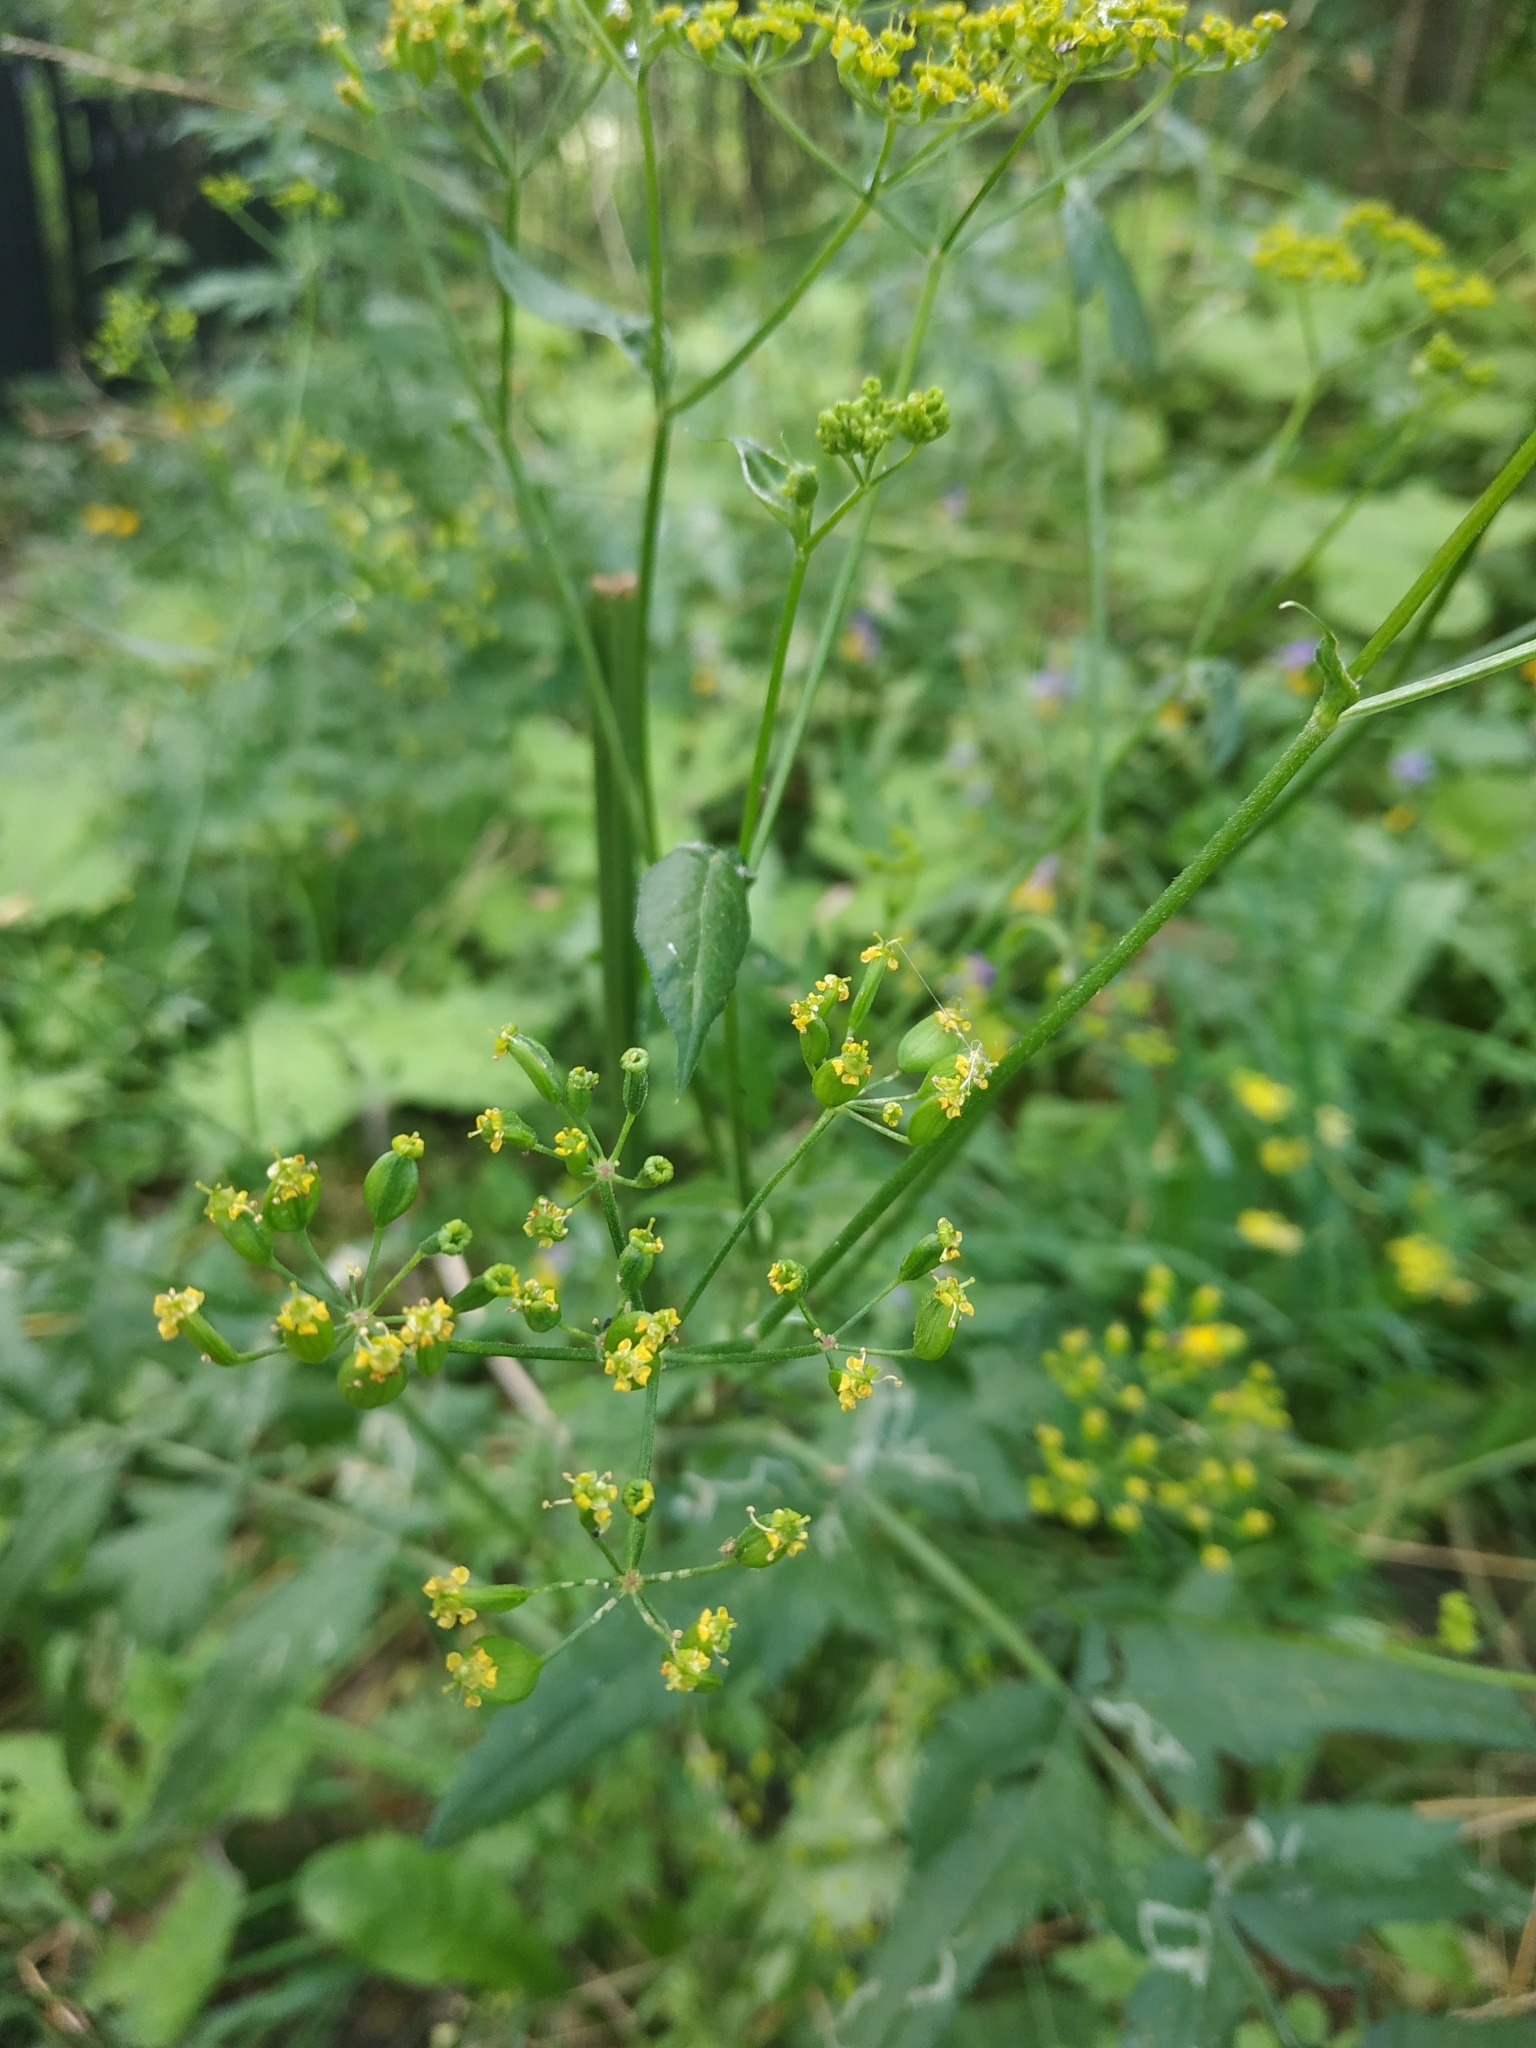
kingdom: Plantae
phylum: Tracheophyta
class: Magnoliopsida
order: Apiales
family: Apiaceae
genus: Pastinaca
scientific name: Pastinaca sativa
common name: Wild parsnip
